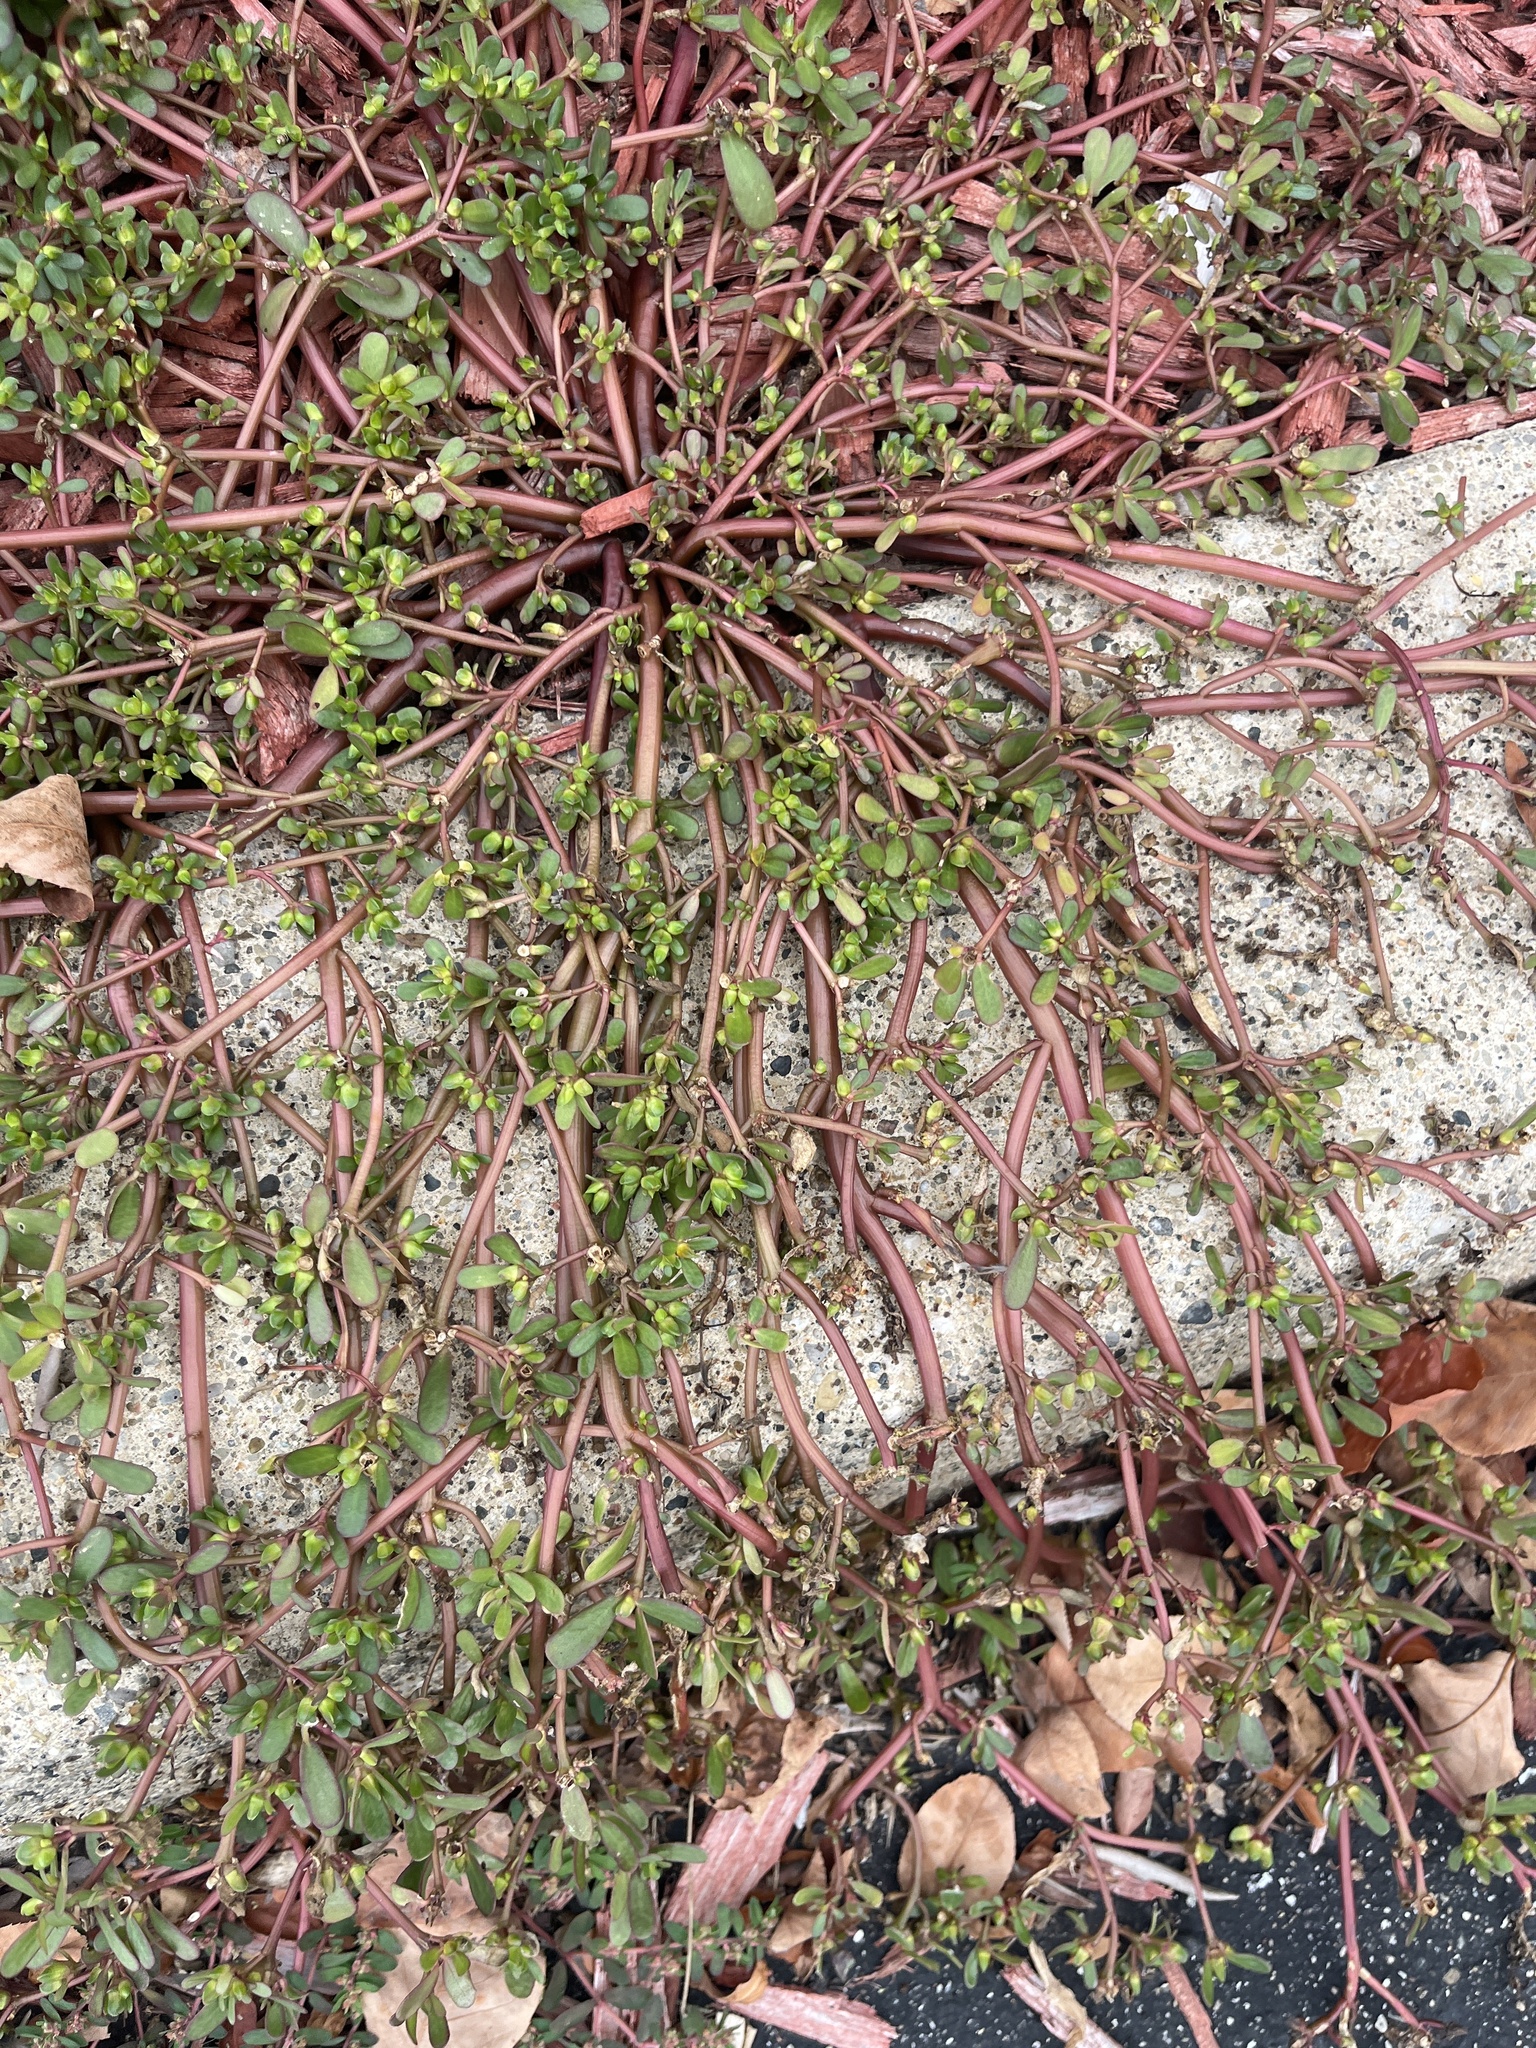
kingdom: Plantae
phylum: Tracheophyta
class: Magnoliopsida
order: Caryophyllales
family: Portulacaceae
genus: Portulaca
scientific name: Portulaca oleracea
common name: Common purslane
